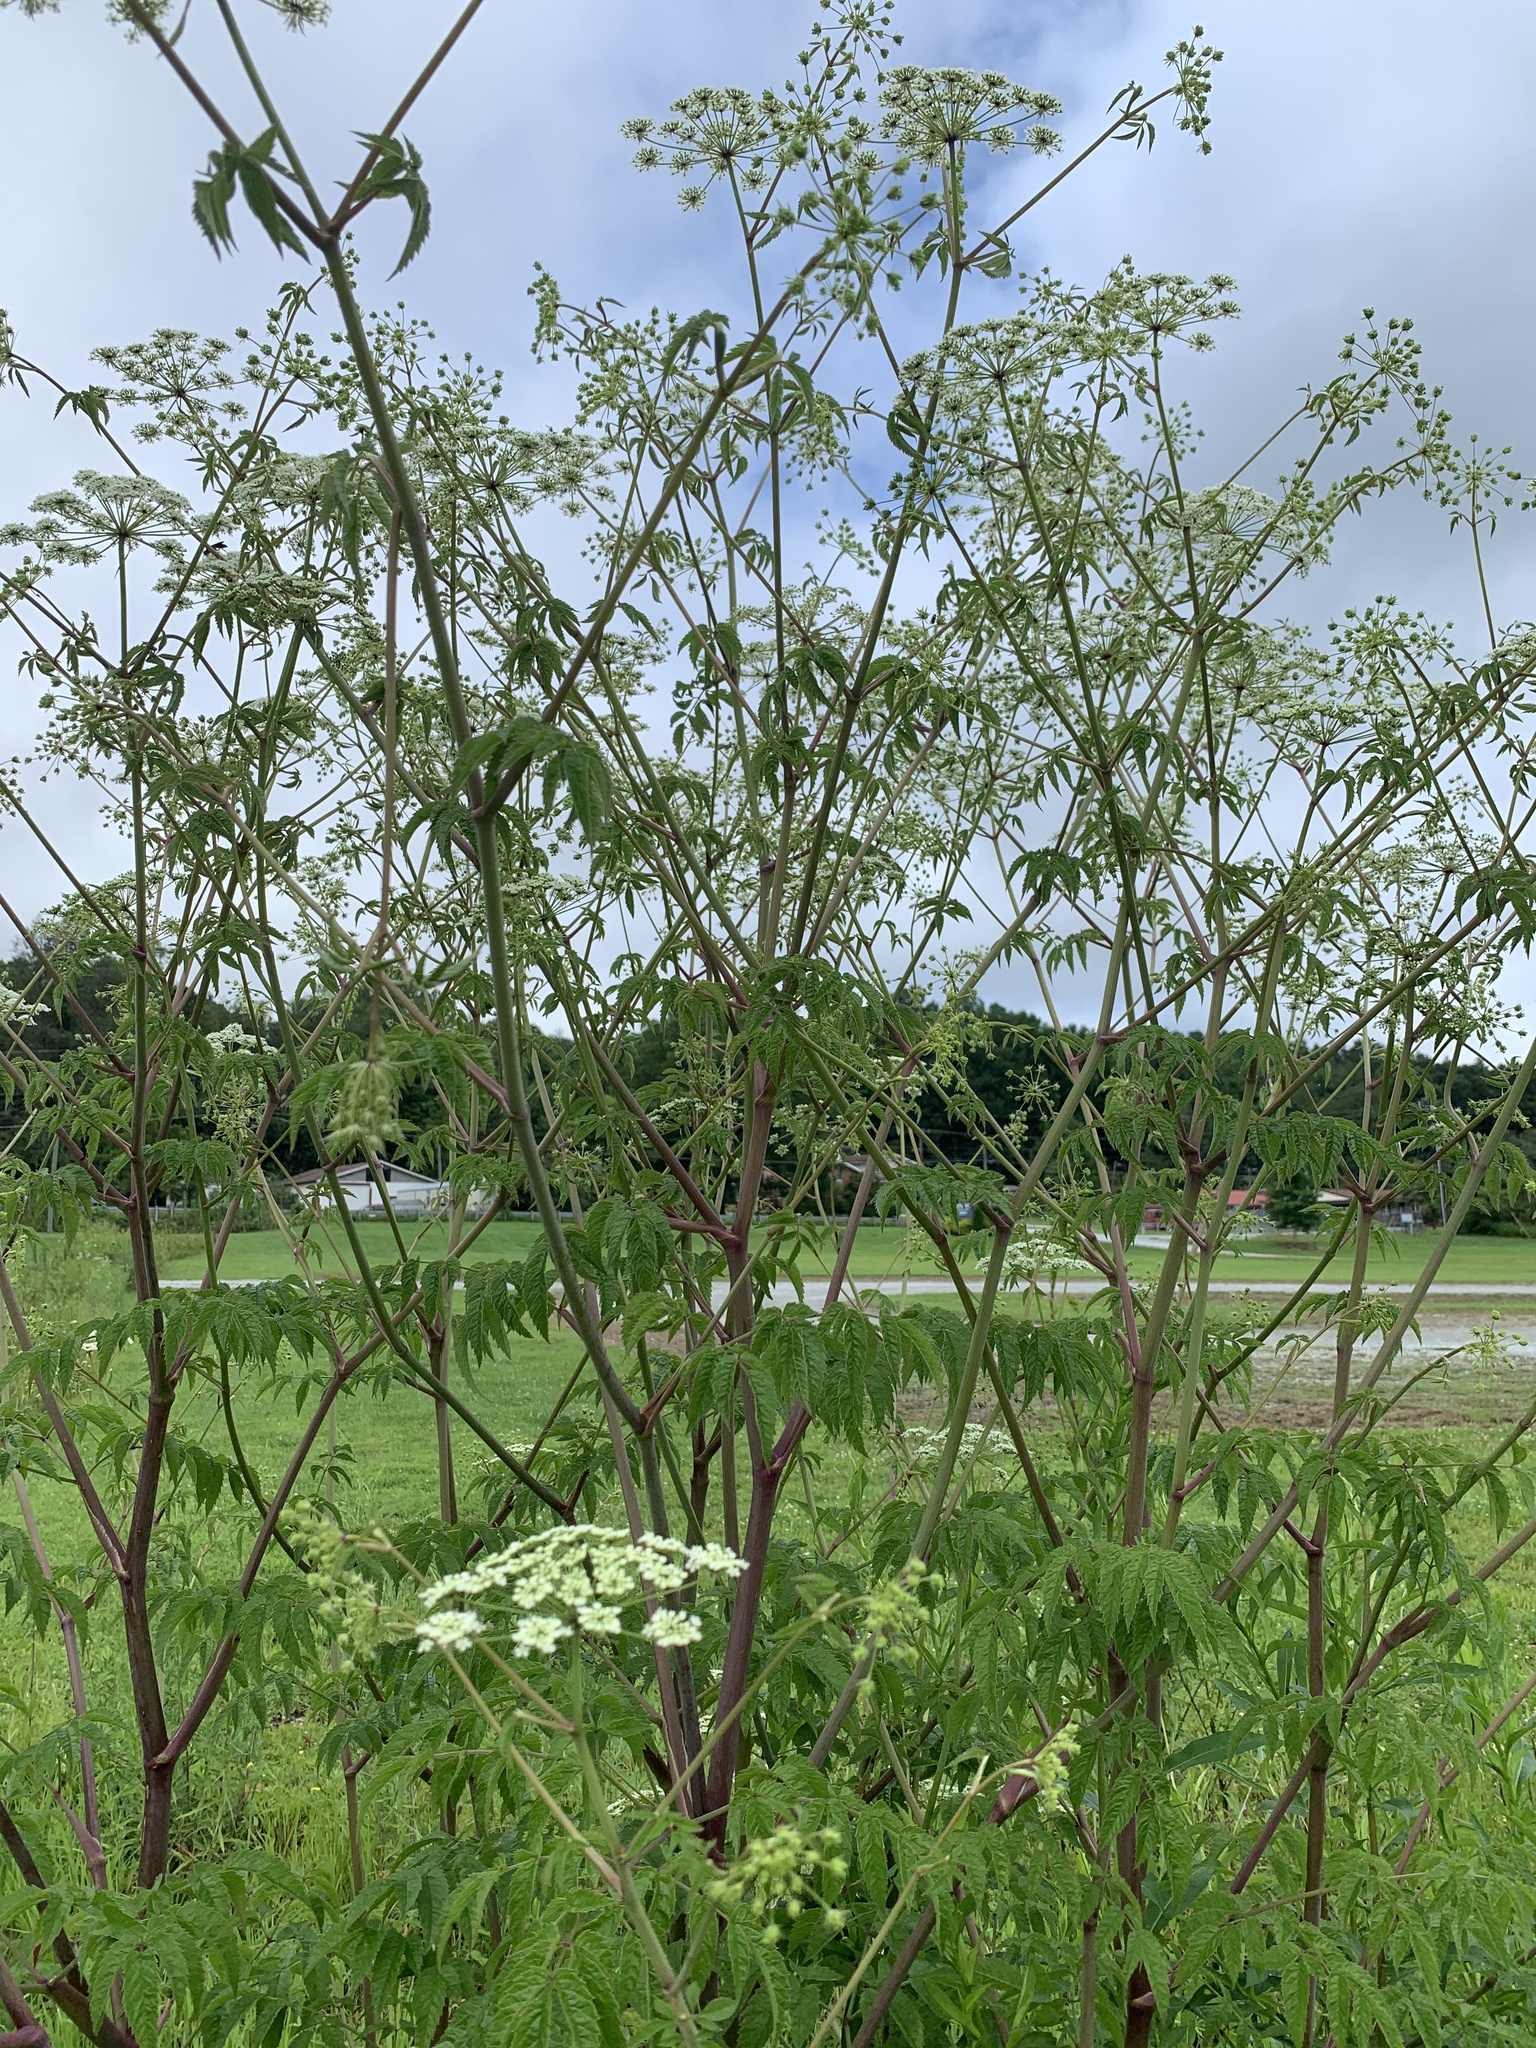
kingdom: Plantae
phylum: Tracheophyta
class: Magnoliopsida
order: Apiales
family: Apiaceae
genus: Cicuta
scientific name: Cicuta maculata
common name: Spotted cowbane
